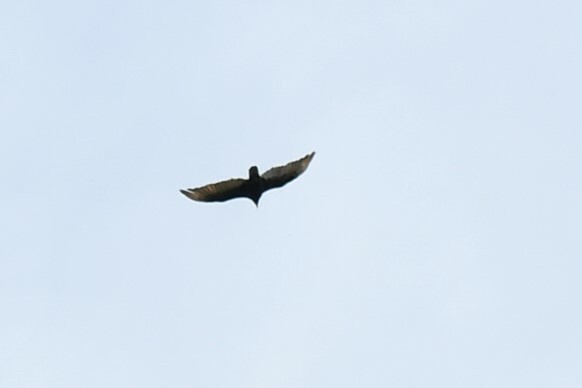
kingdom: Animalia
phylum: Chordata
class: Aves
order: Accipitriformes
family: Cathartidae
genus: Cathartes
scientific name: Cathartes aura
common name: Turkey vulture
